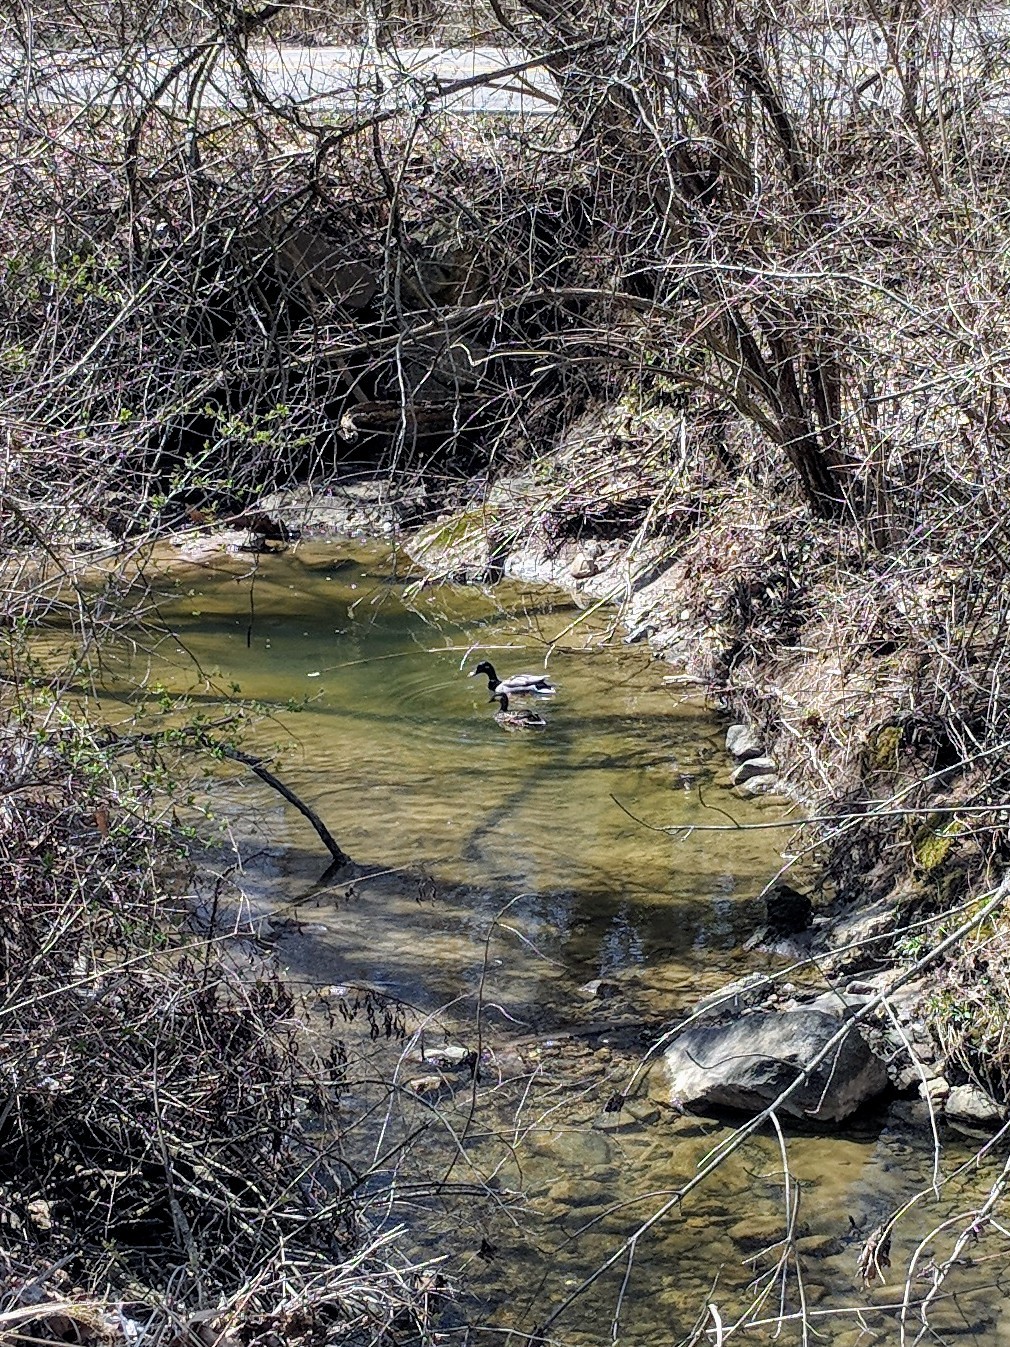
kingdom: Animalia
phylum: Chordata
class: Aves
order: Anseriformes
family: Anatidae
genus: Anas
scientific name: Anas platyrhynchos
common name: Mallard
